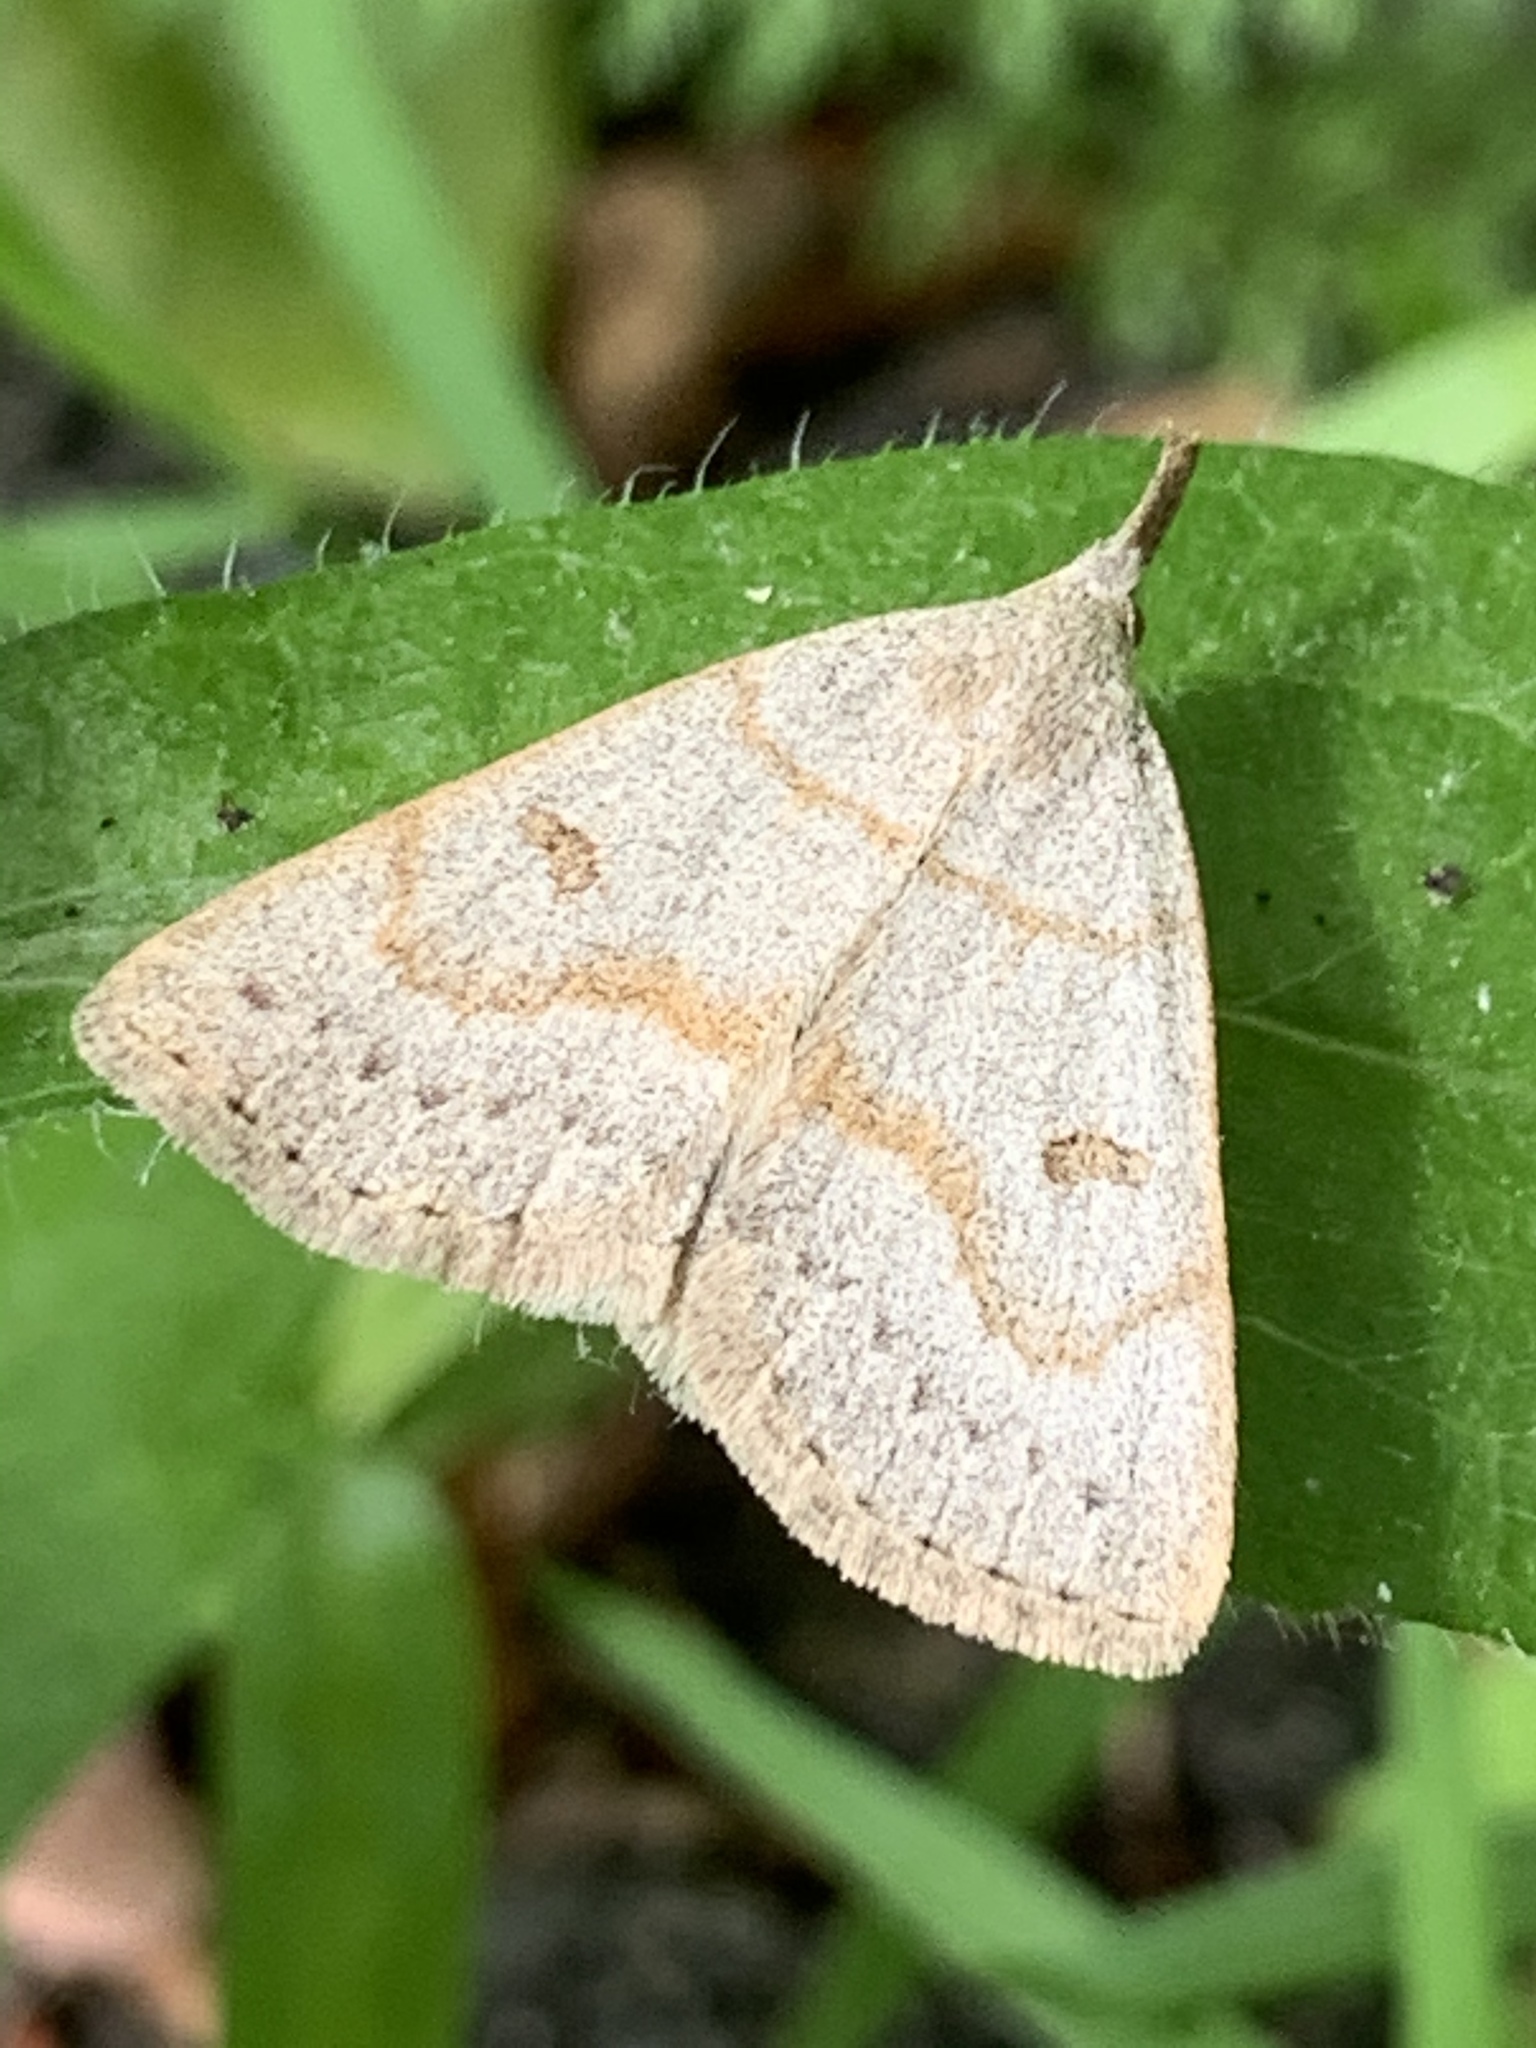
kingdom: Animalia
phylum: Arthropoda
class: Insecta
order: Lepidoptera
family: Erebidae
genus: Macrochilo
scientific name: Macrochilo morbidalis
